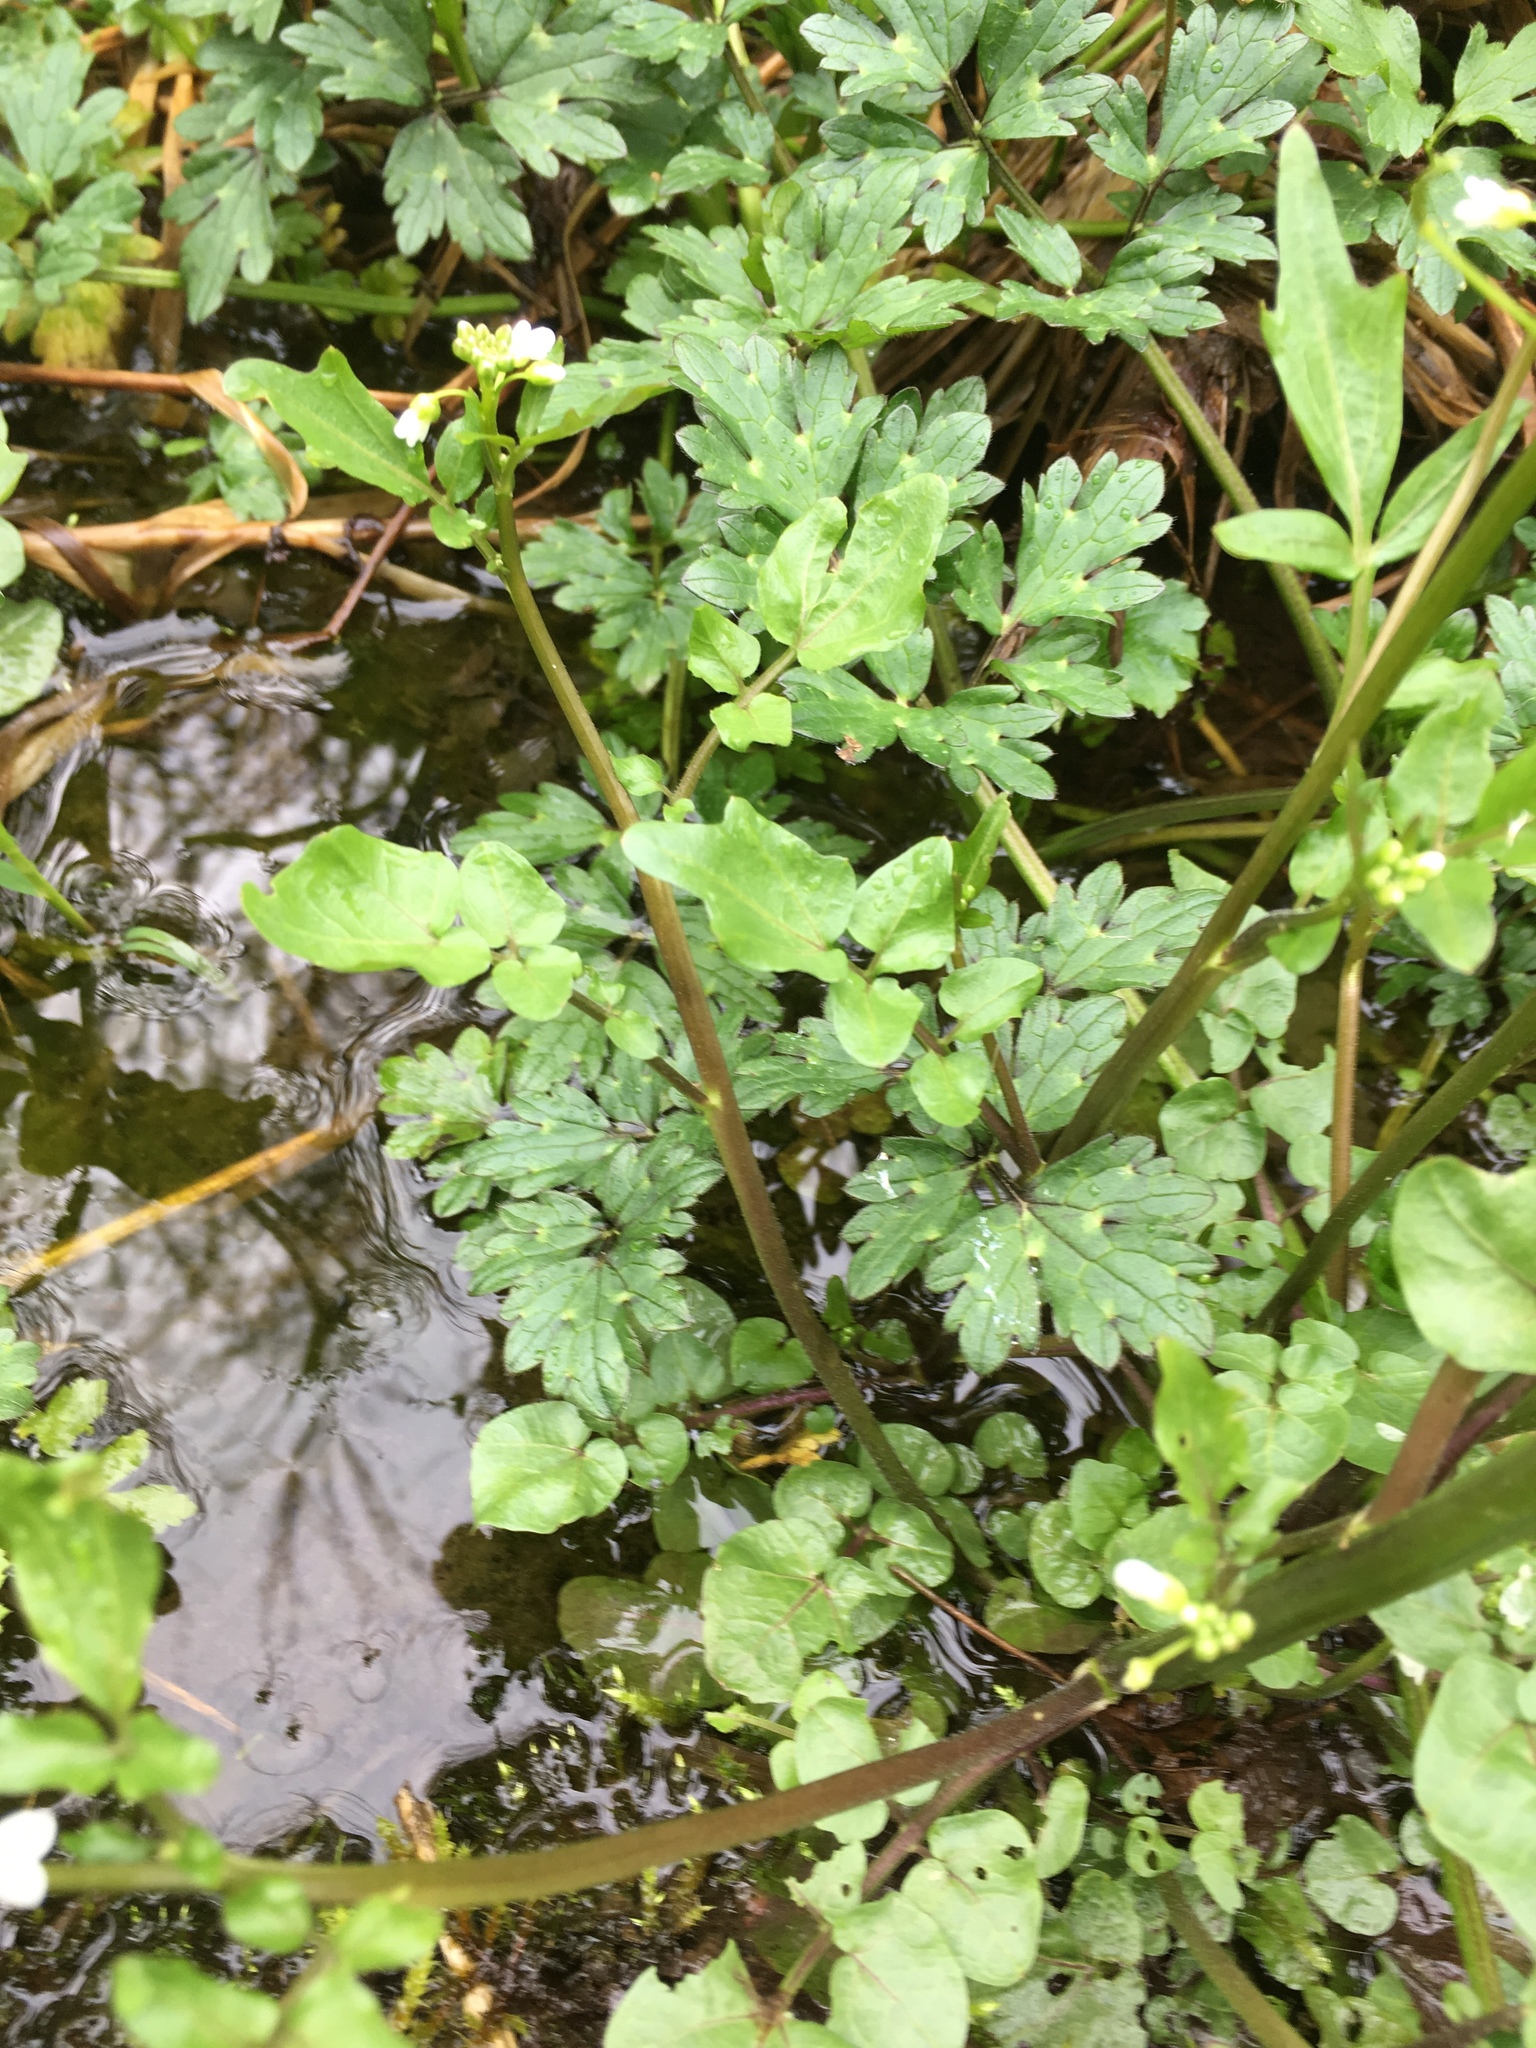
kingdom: Plantae
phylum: Tracheophyta
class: Magnoliopsida
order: Brassicales
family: Brassicaceae
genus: Cardamine
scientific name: Cardamine breweri
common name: Brewer's bittercress
